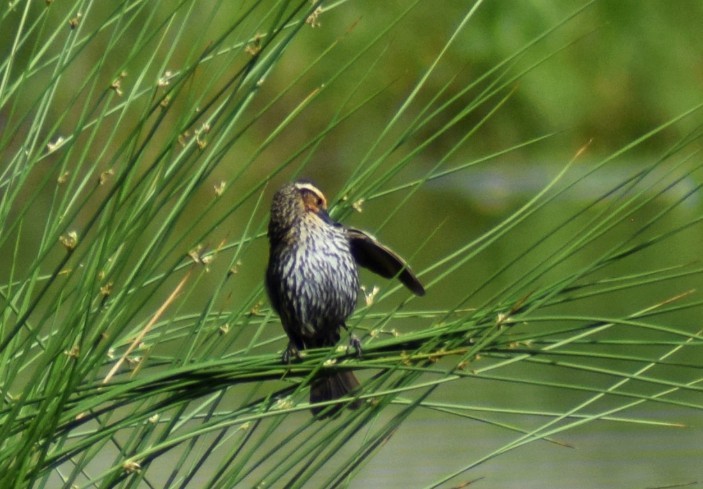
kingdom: Animalia
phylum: Chordata
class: Aves
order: Passeriformes
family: Icteridae
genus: Agelaius
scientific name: Agelaius phoeniceus
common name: Red-winged blackbird
